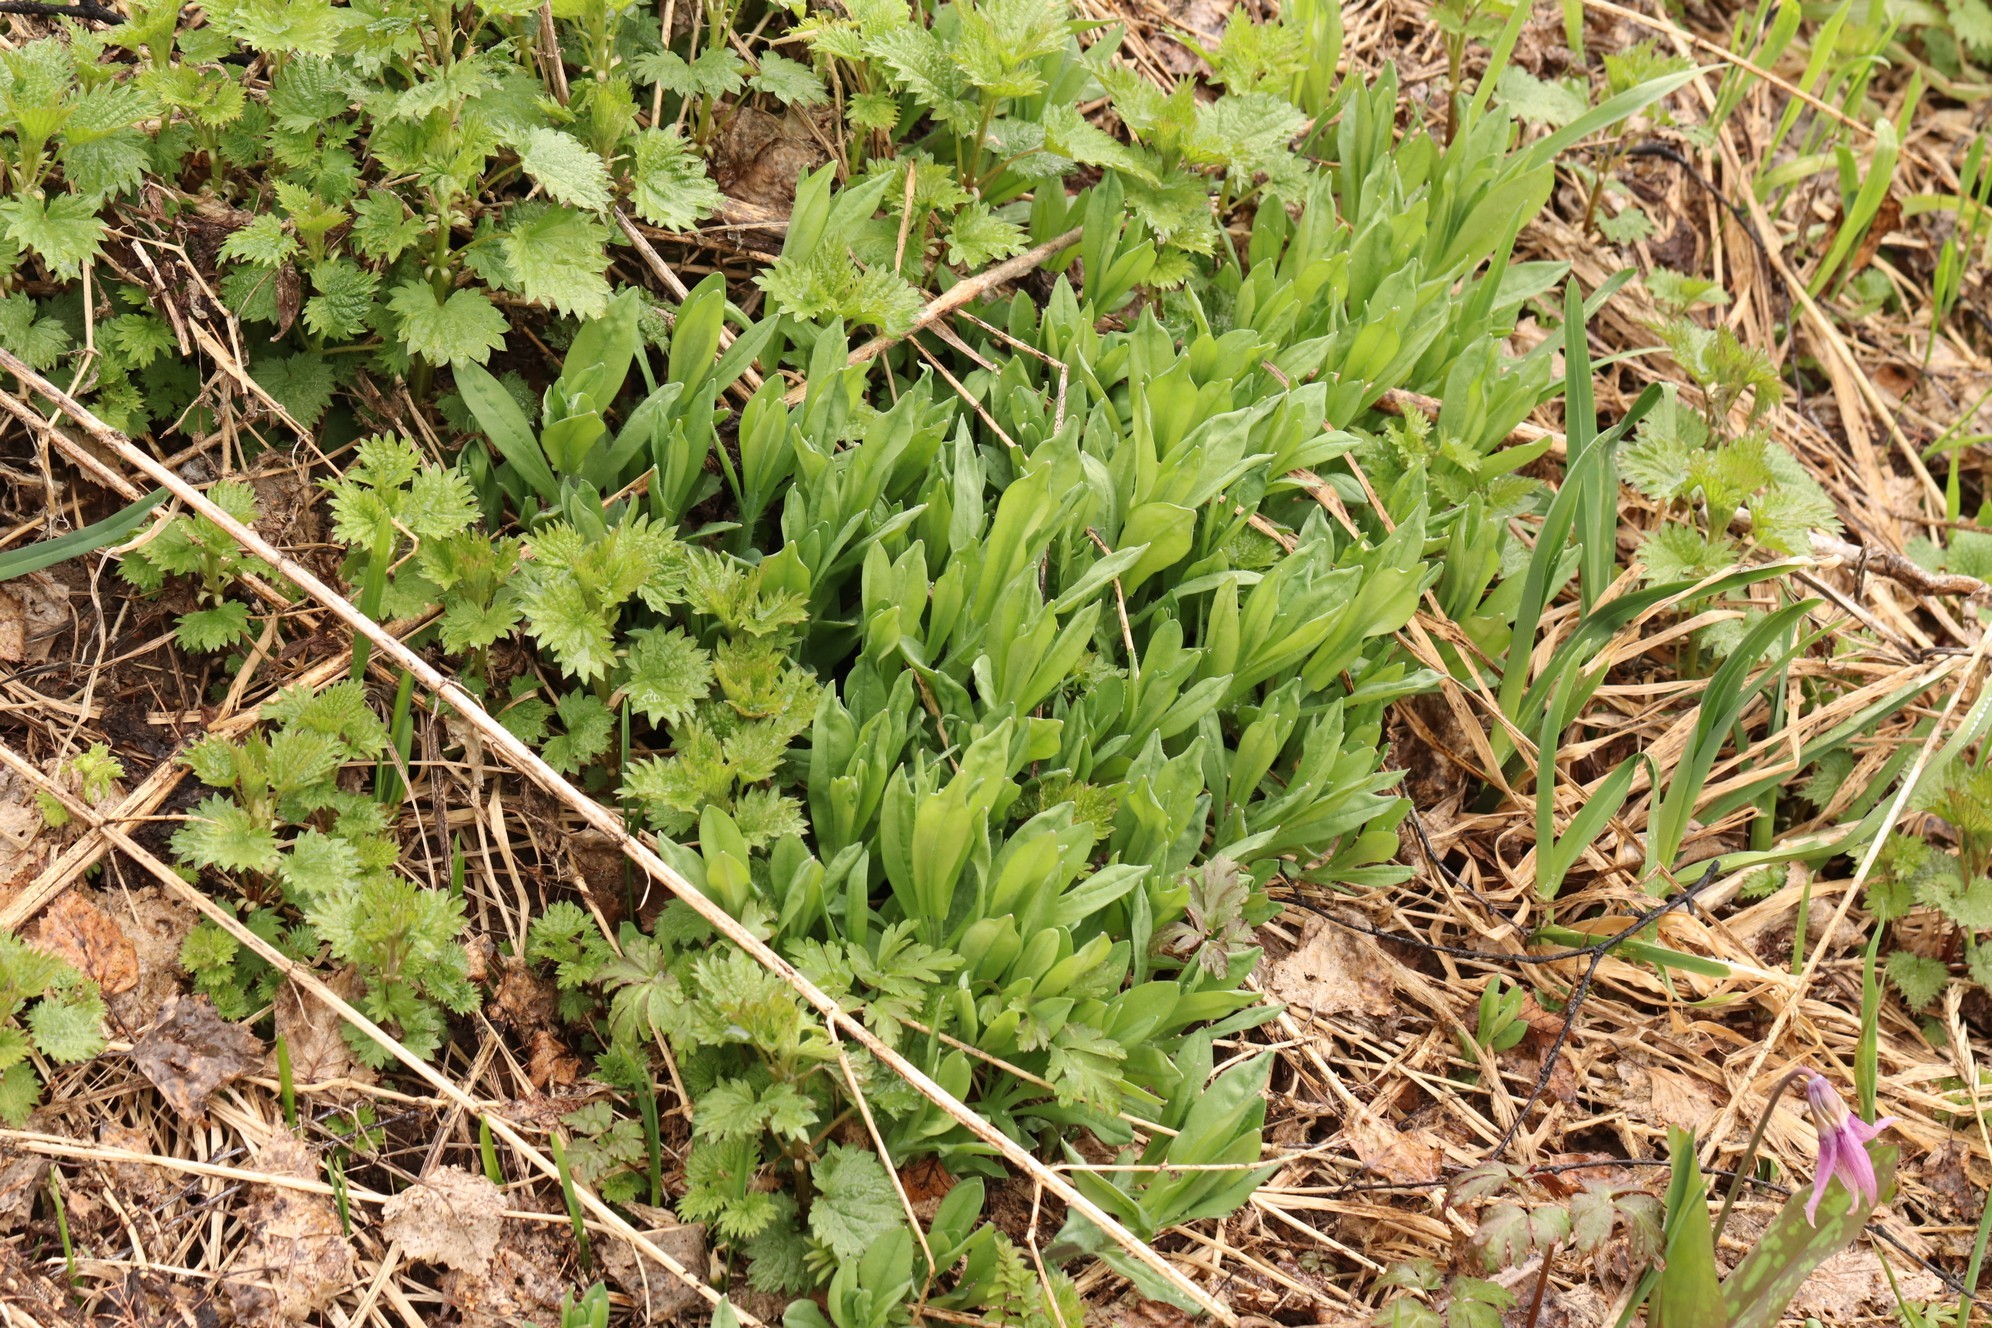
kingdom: Plantae
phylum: Tracheophyta
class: Magnoliopsida
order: Rosales
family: Urticaceae
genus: Urtica
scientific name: Urtica dioica
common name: Common nettle
